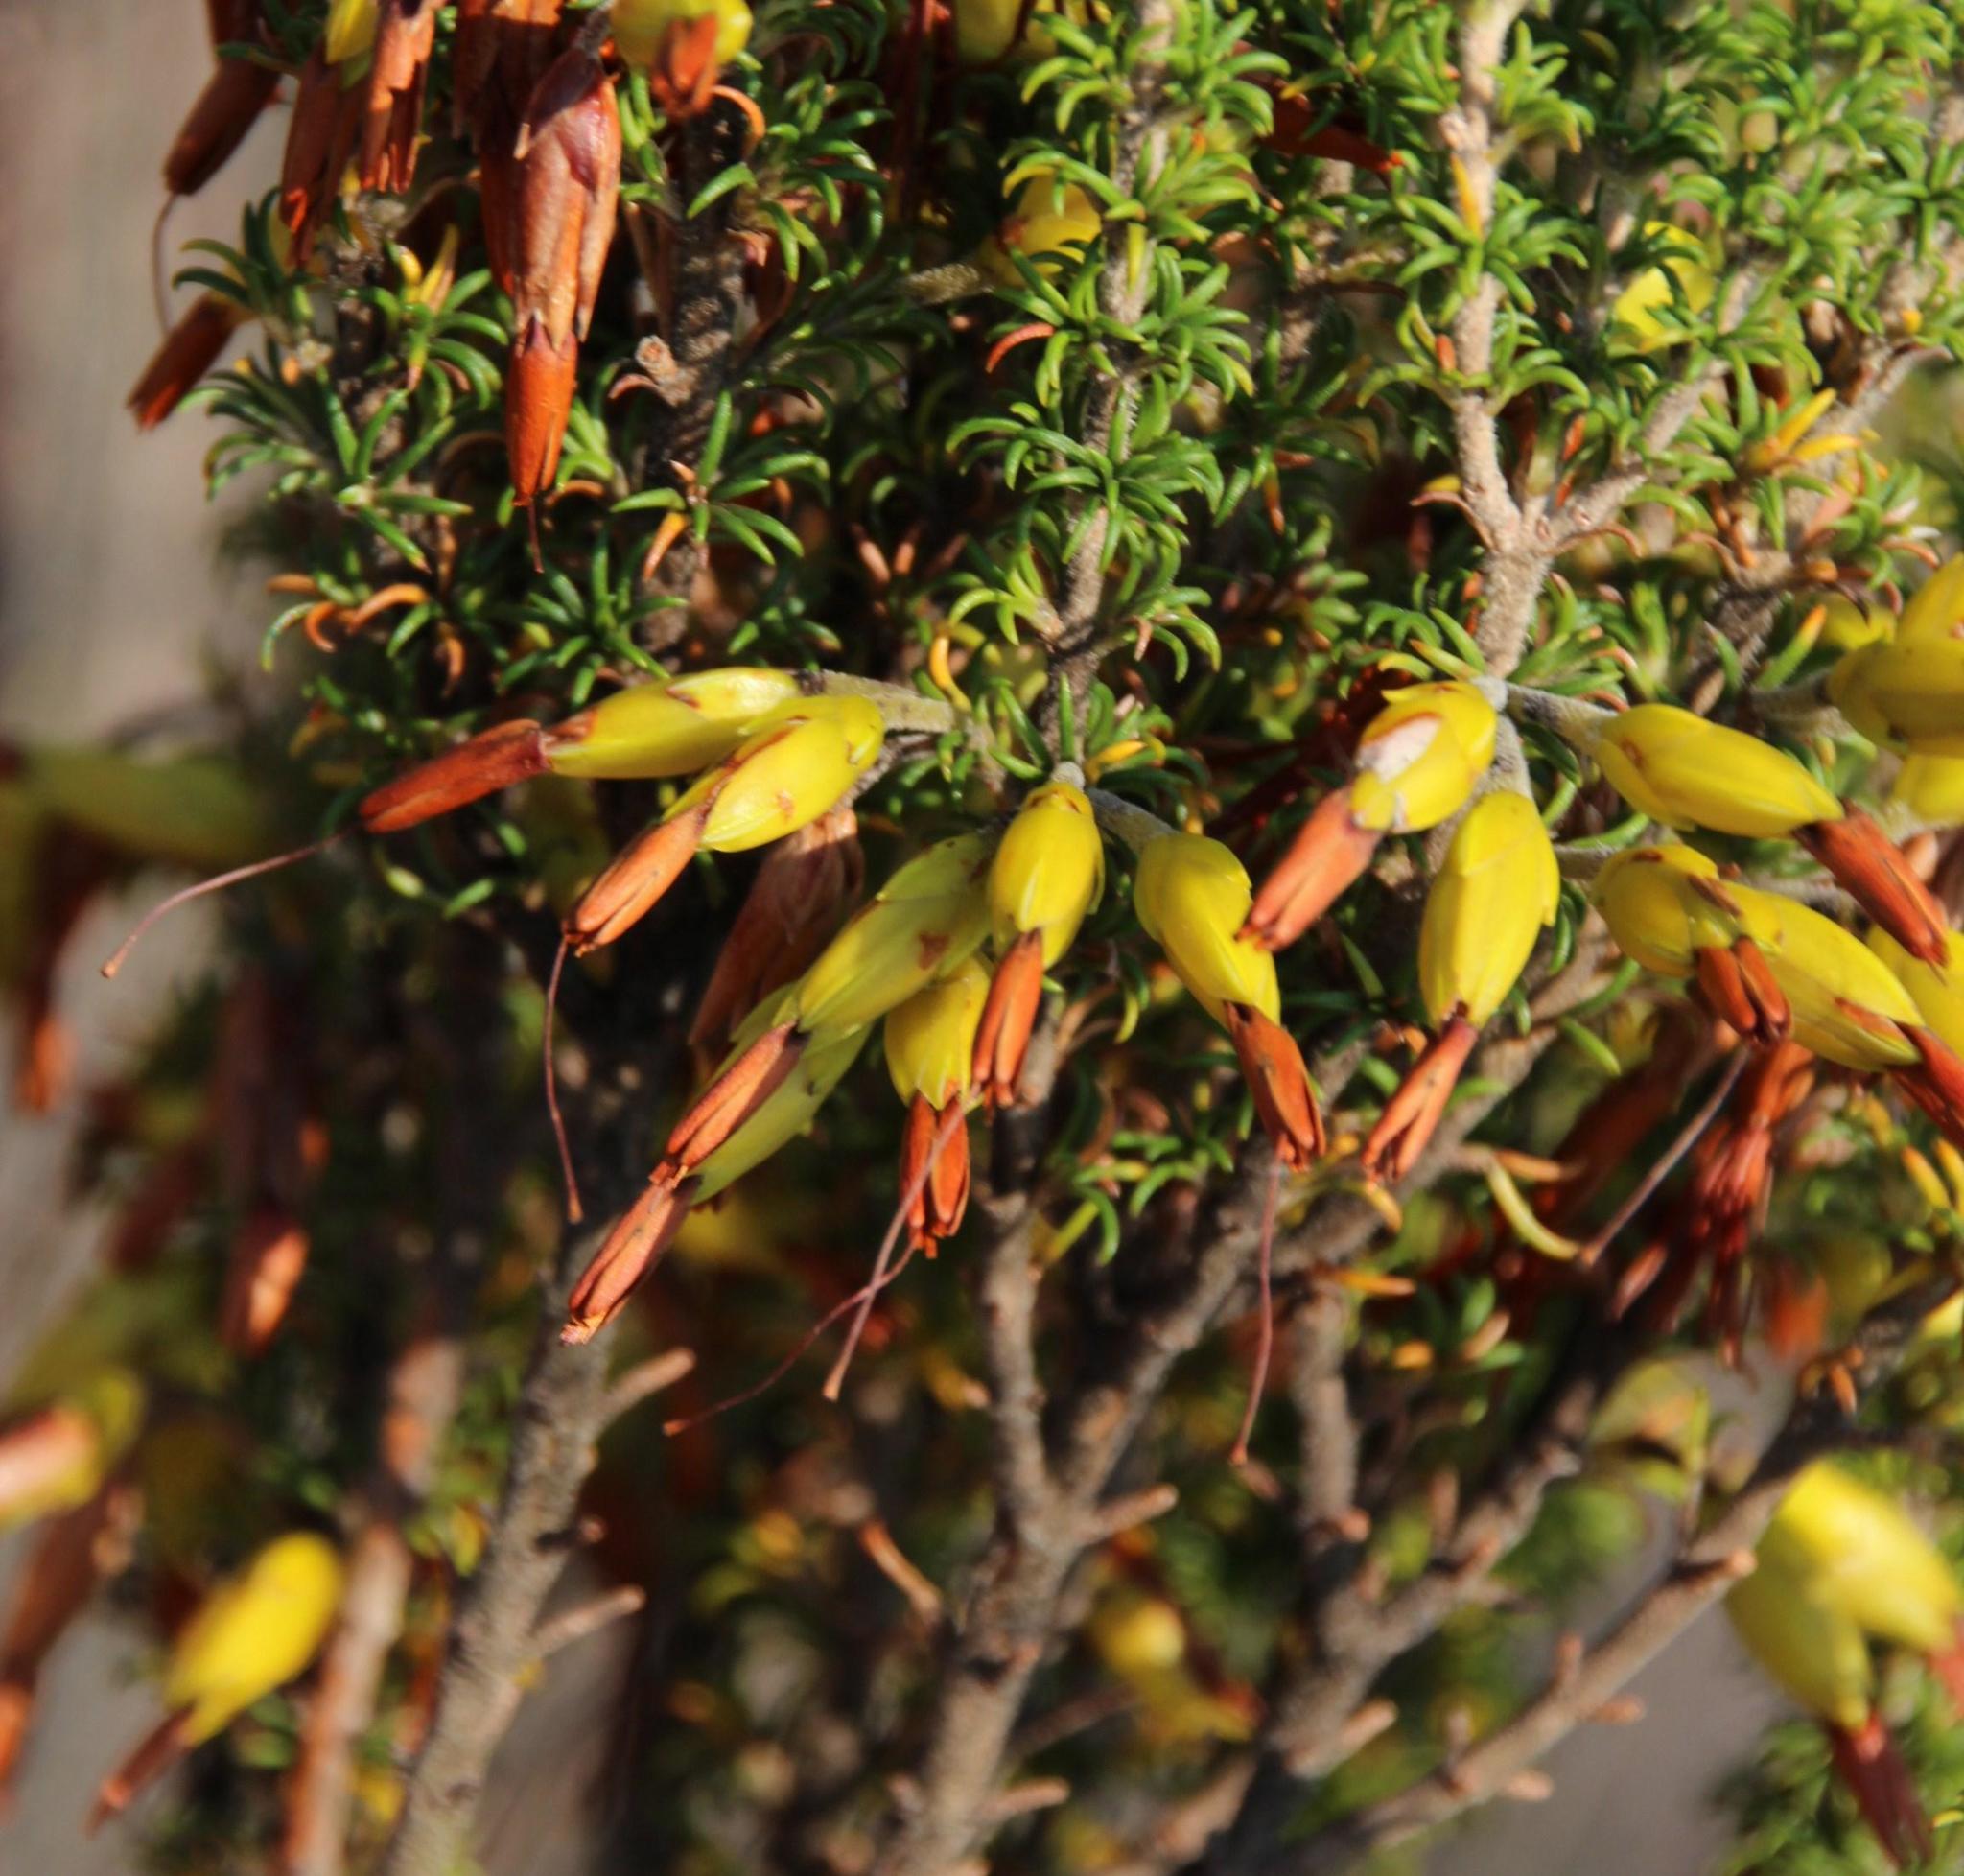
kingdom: Plantae
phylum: Tracheophyta
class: Magnoliopsida
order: Ericales
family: Ericaceae
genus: Erica
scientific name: Erica coccinea
